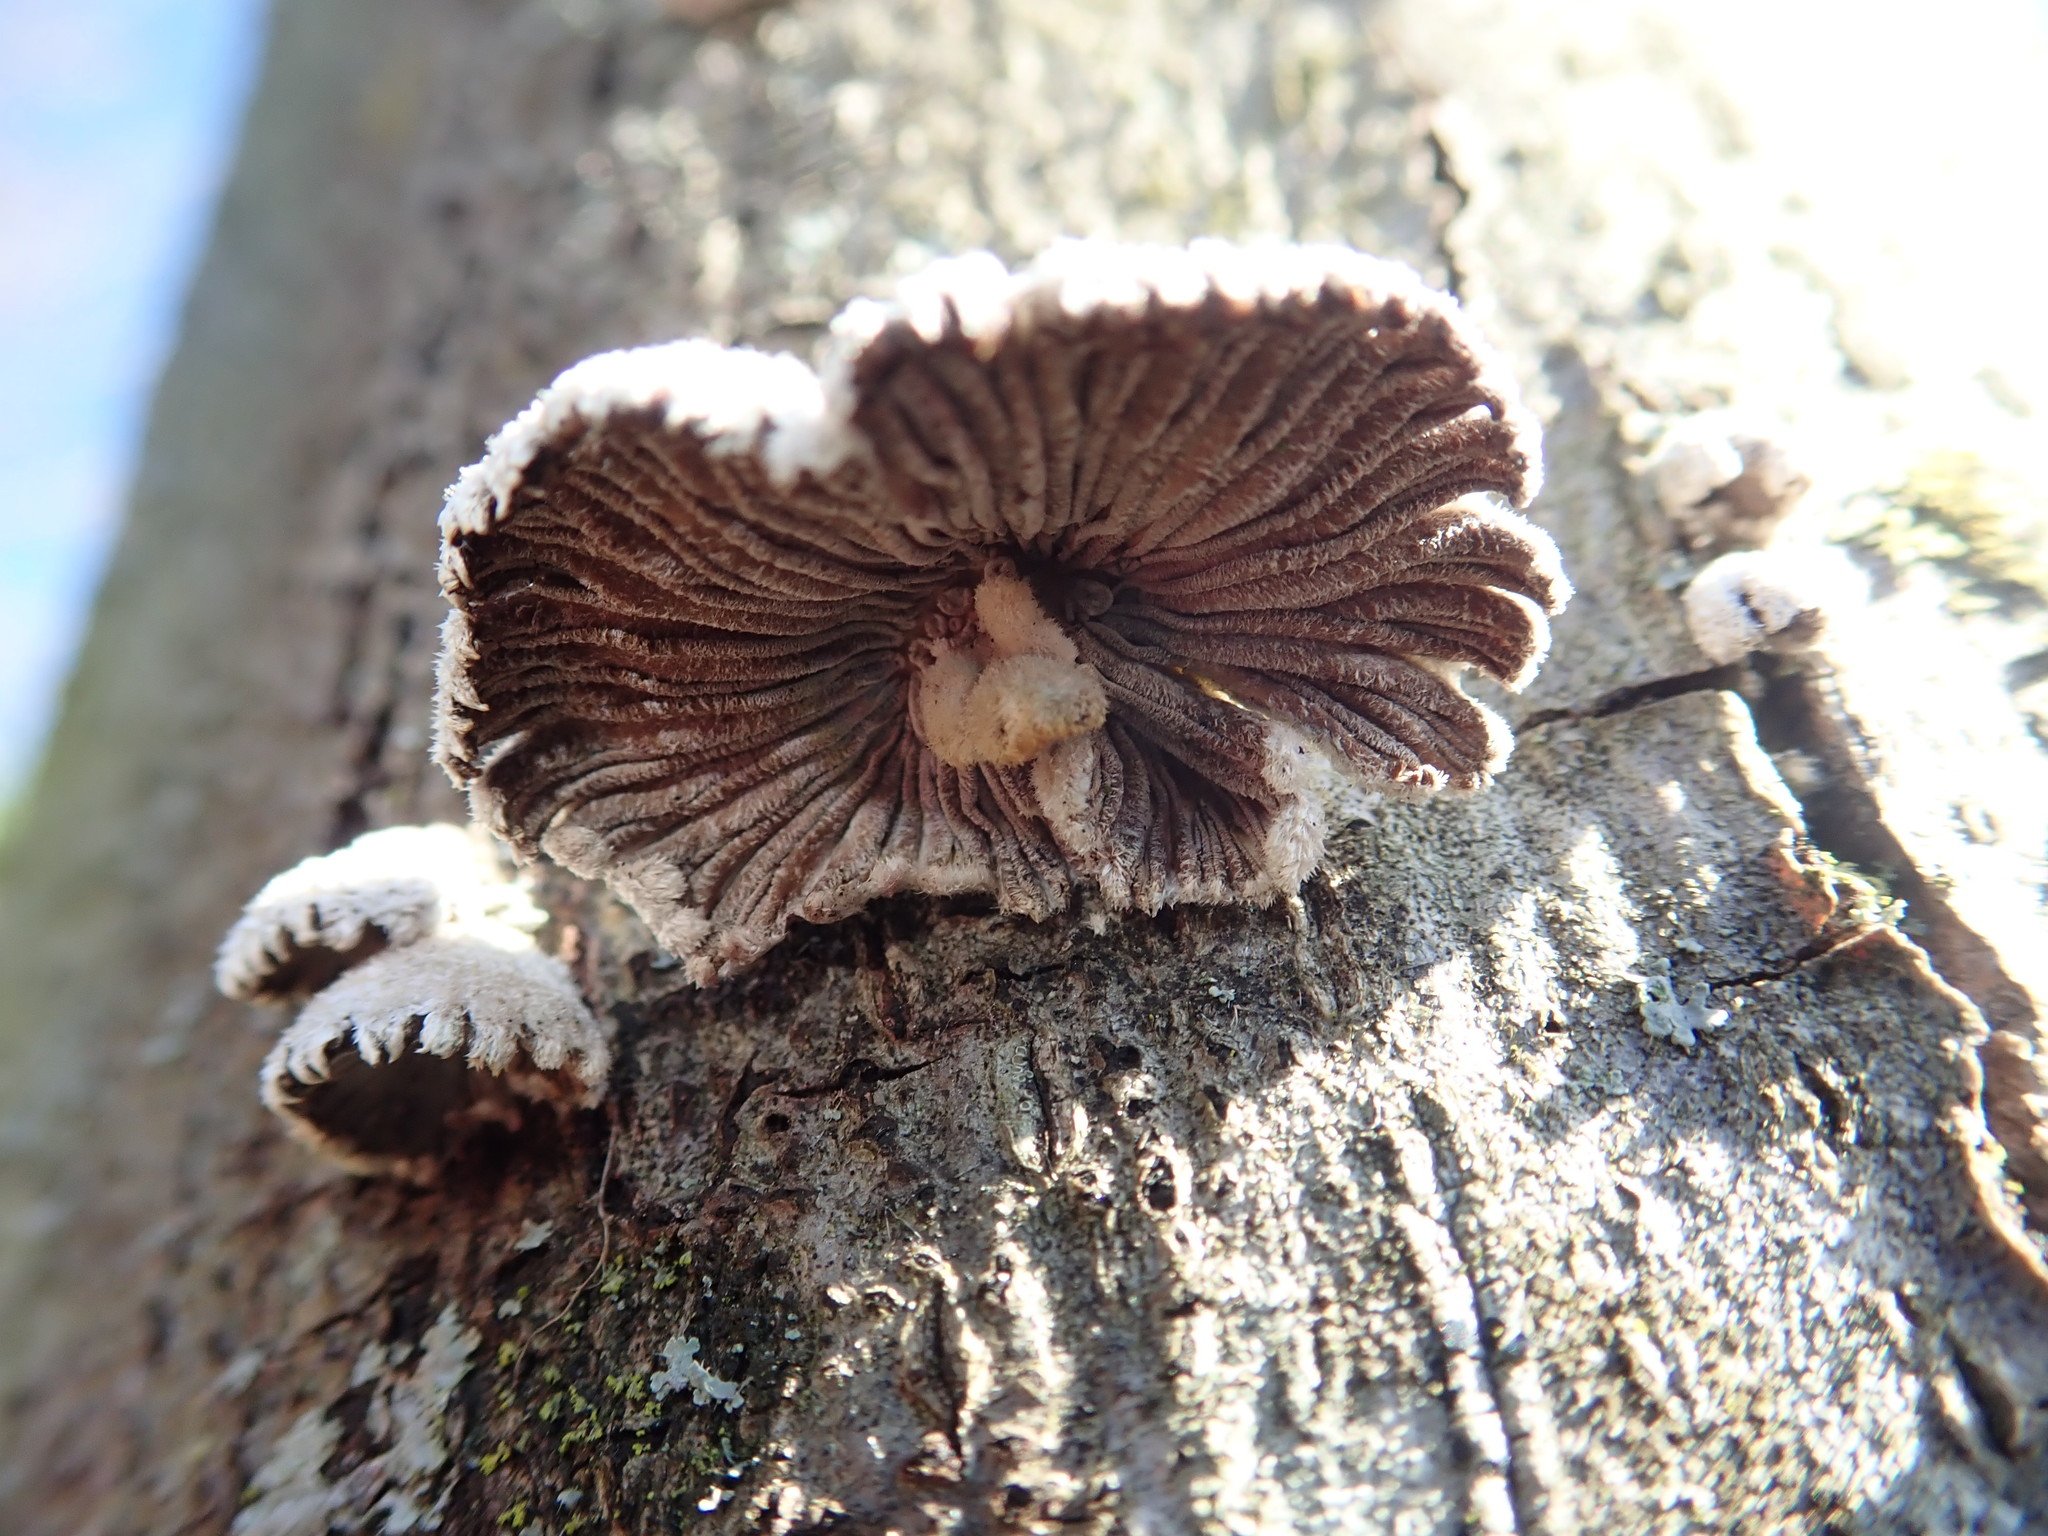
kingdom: Fungi
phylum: Basidiomycota
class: Agaricomycetes
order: Agaricales
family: Schizophyllaceae
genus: Schizophyllum
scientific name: Schizophyllum commune
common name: Common porecrust
